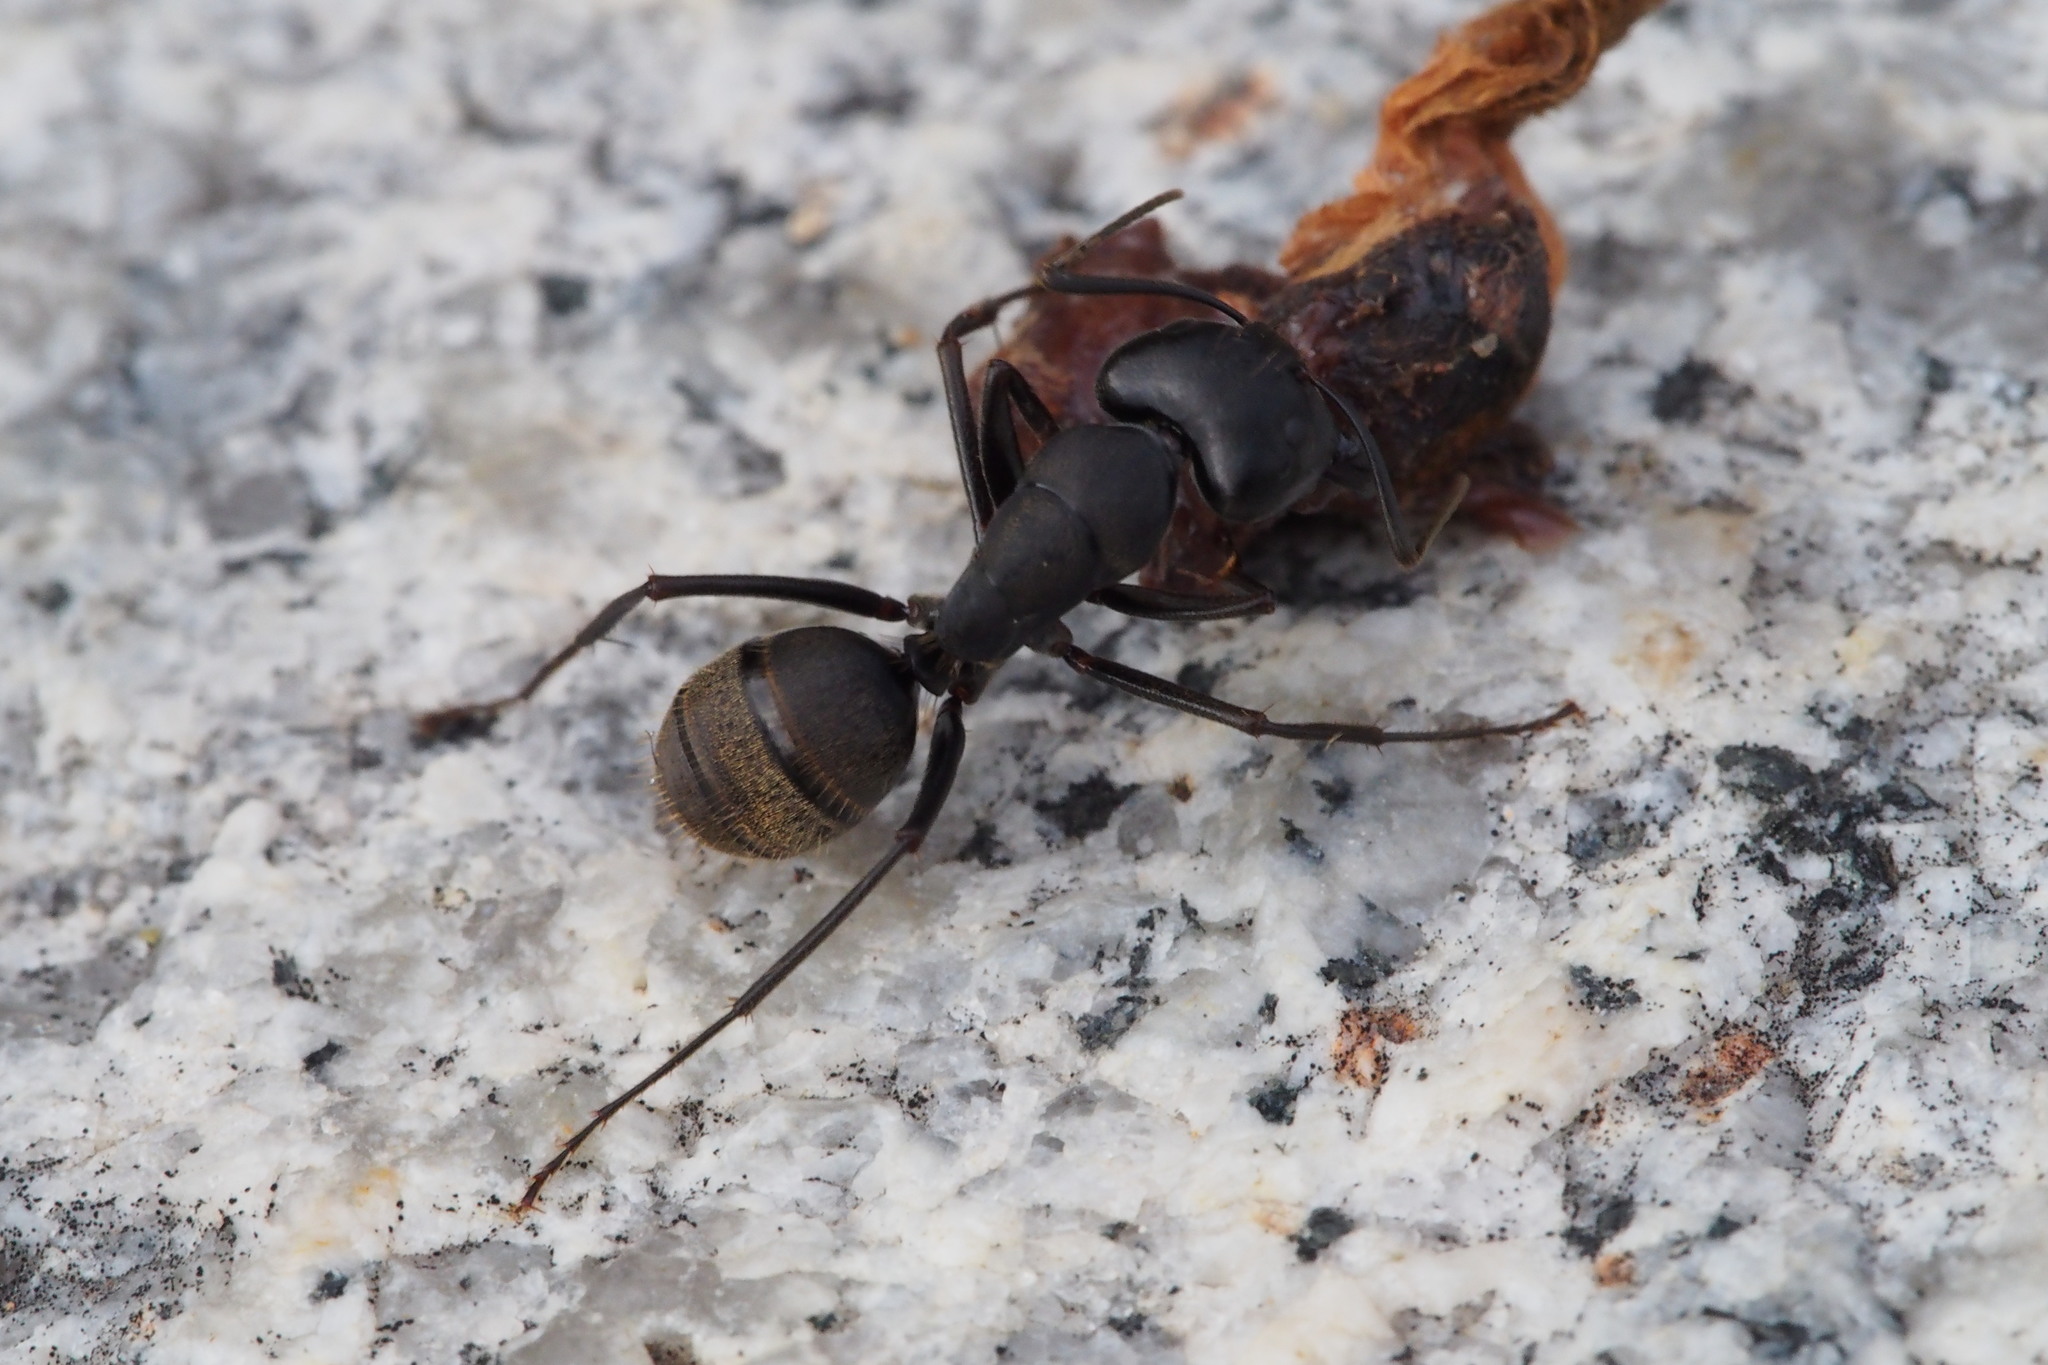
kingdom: Animalia
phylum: Arthropoda
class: Insecta
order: Hymenoptera
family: Formicidae
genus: Camponotus
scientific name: Camponotus japonicus
